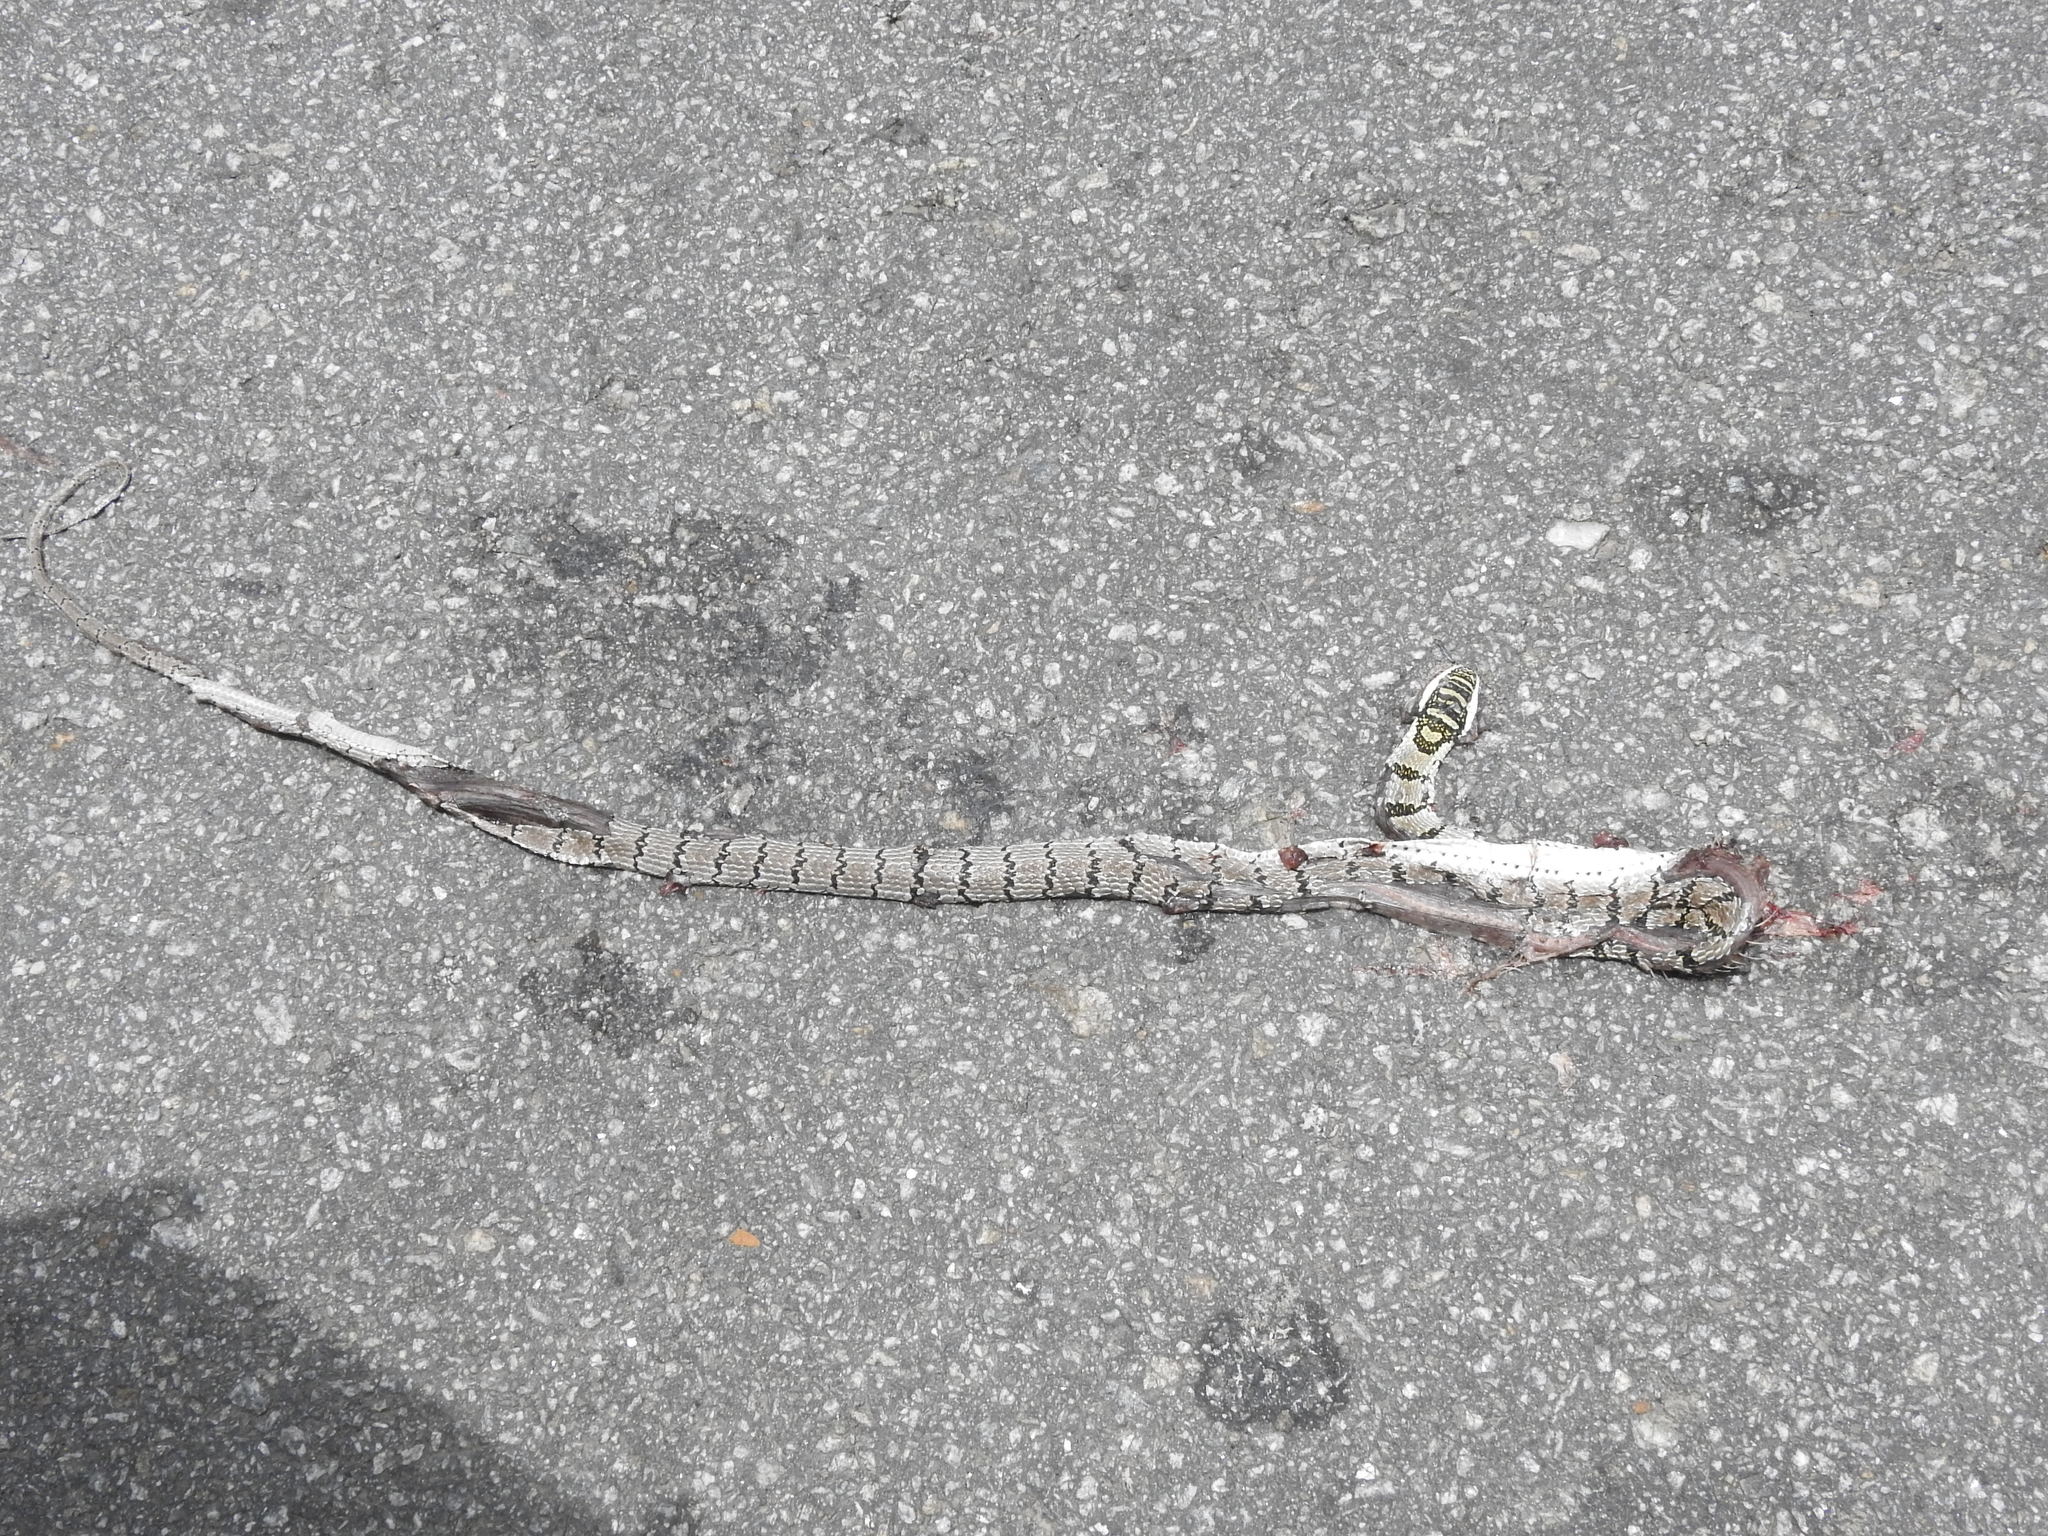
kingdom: Animalia
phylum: Chordata
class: Squamata
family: Colubridae
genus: Chrysopelea
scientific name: Chrysopelea taprobanica
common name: Indian flying snake
